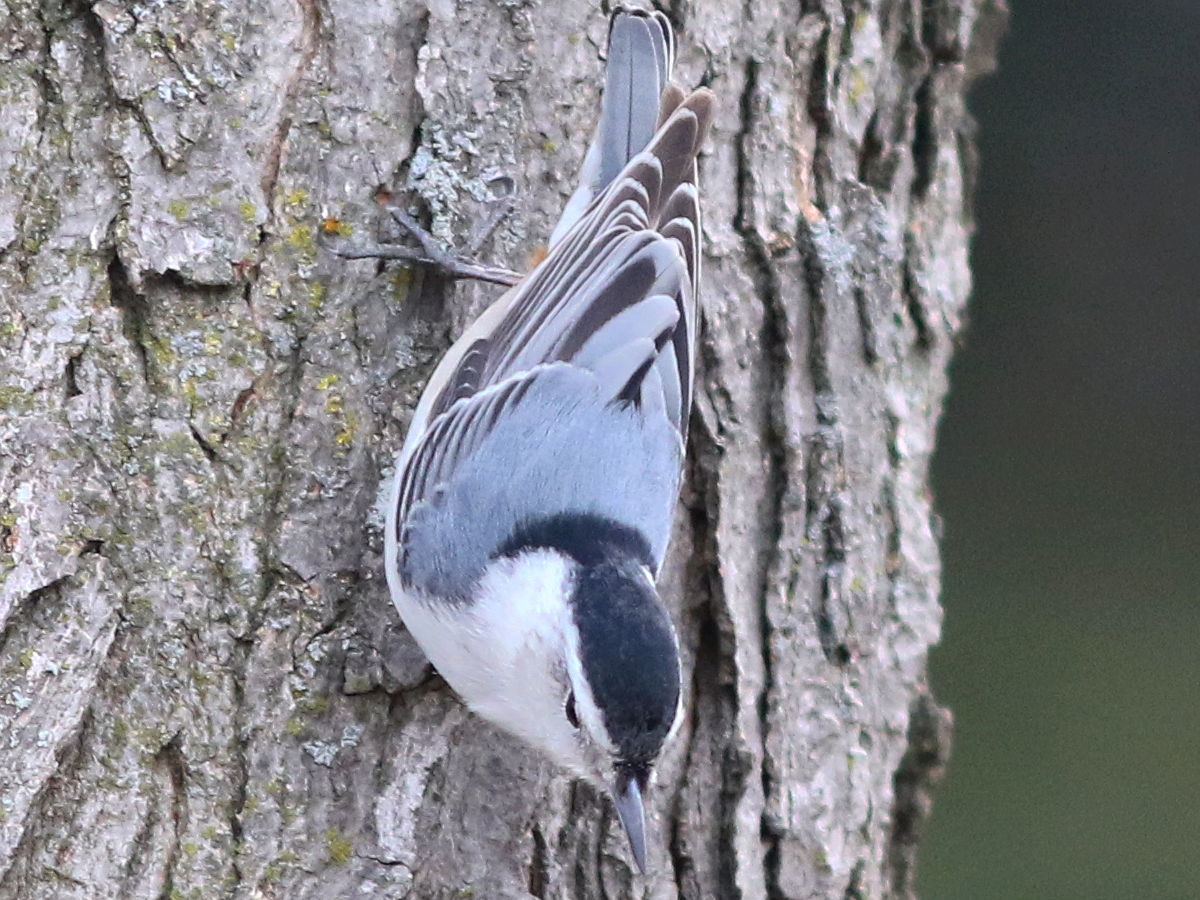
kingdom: Animalia
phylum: Chordata
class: Aves
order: Passeriformes
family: Sittidae
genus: Sitta
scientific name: Sitta carolinensis
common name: White-breasted nuthatch
